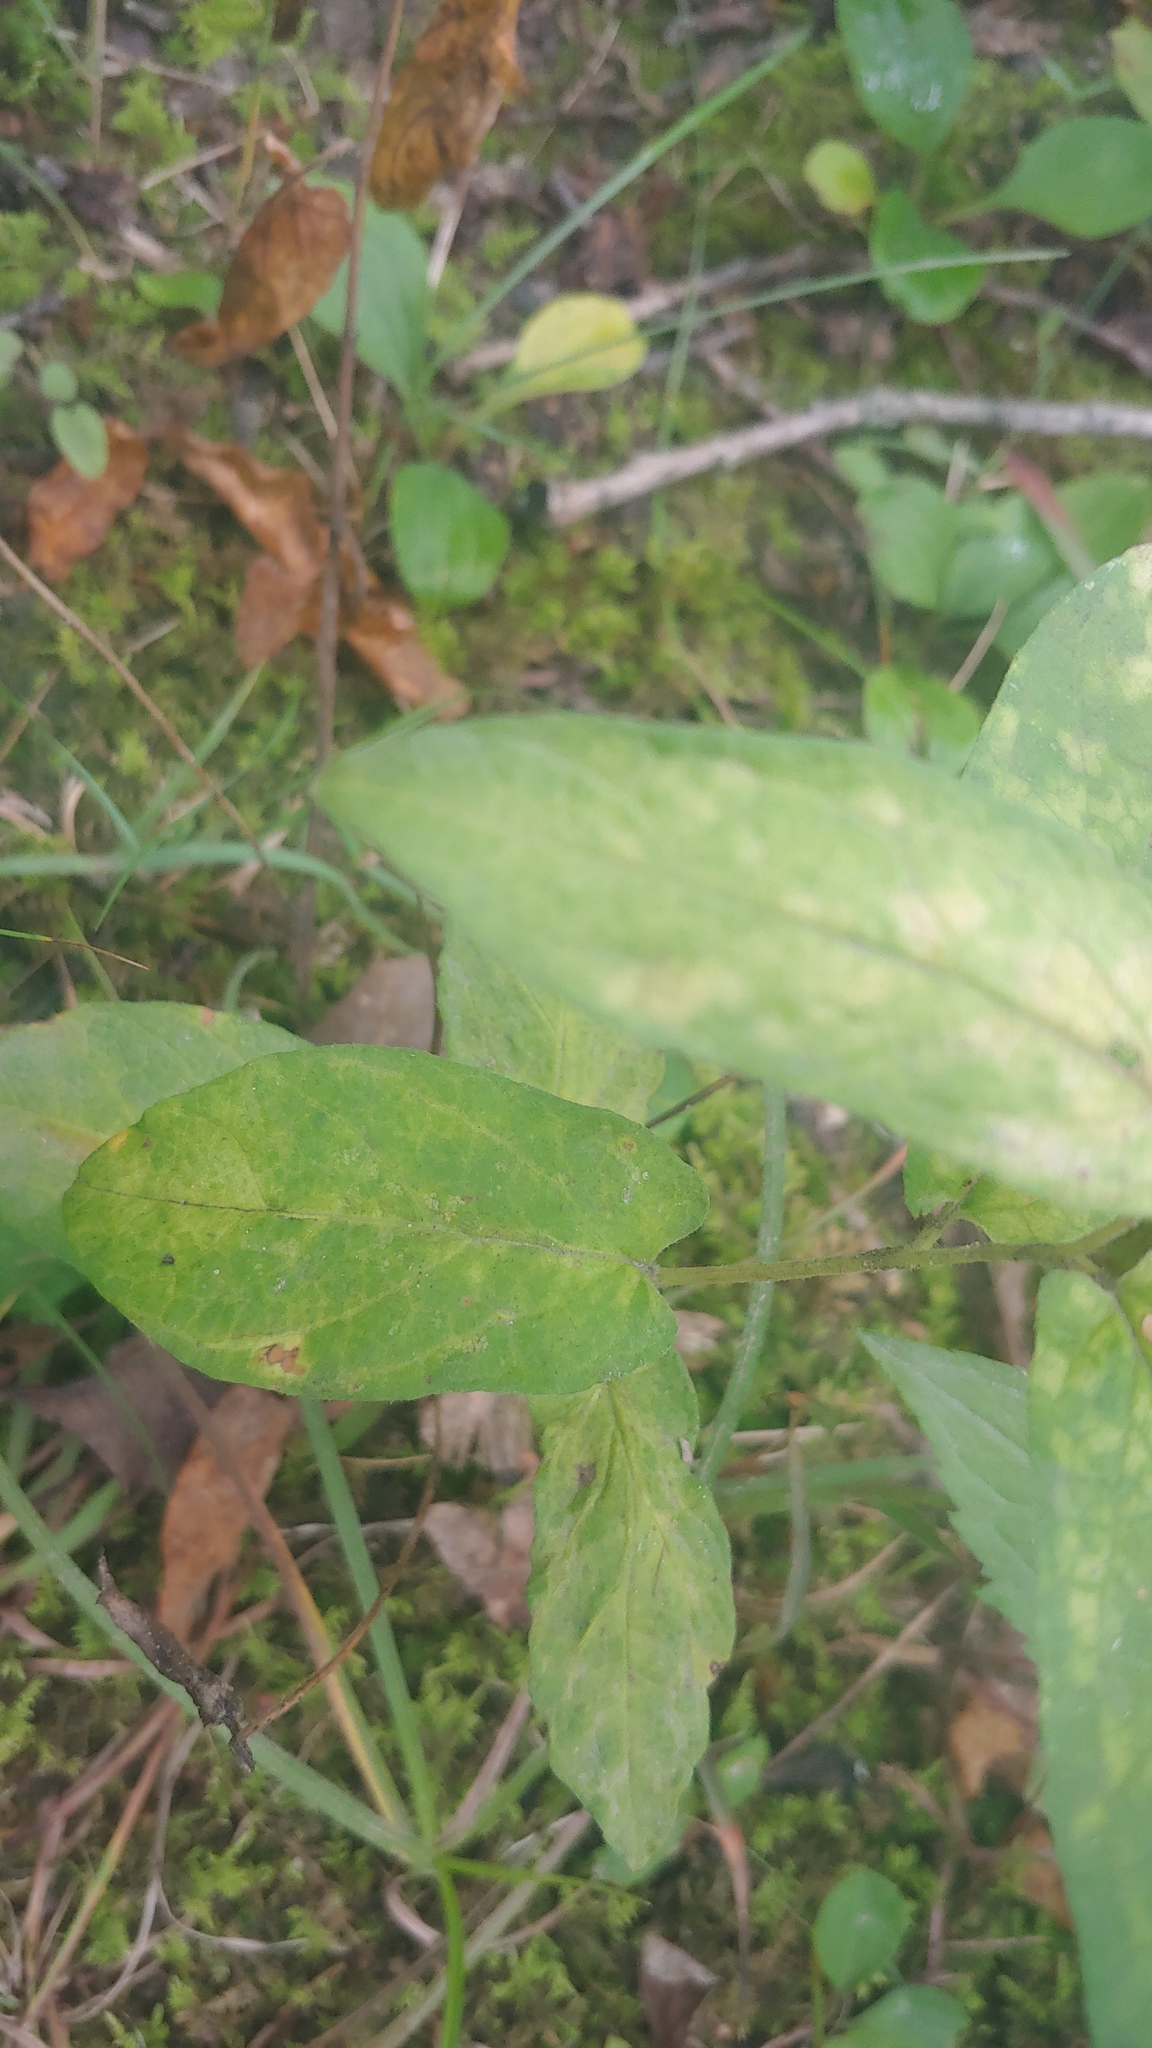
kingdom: Plantae
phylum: Tracheophyta
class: Magnoliopsida
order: Solanales
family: Convolvulaceae
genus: Calystegia
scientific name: Calystegia spithamaea
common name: Dwarf bindweed
